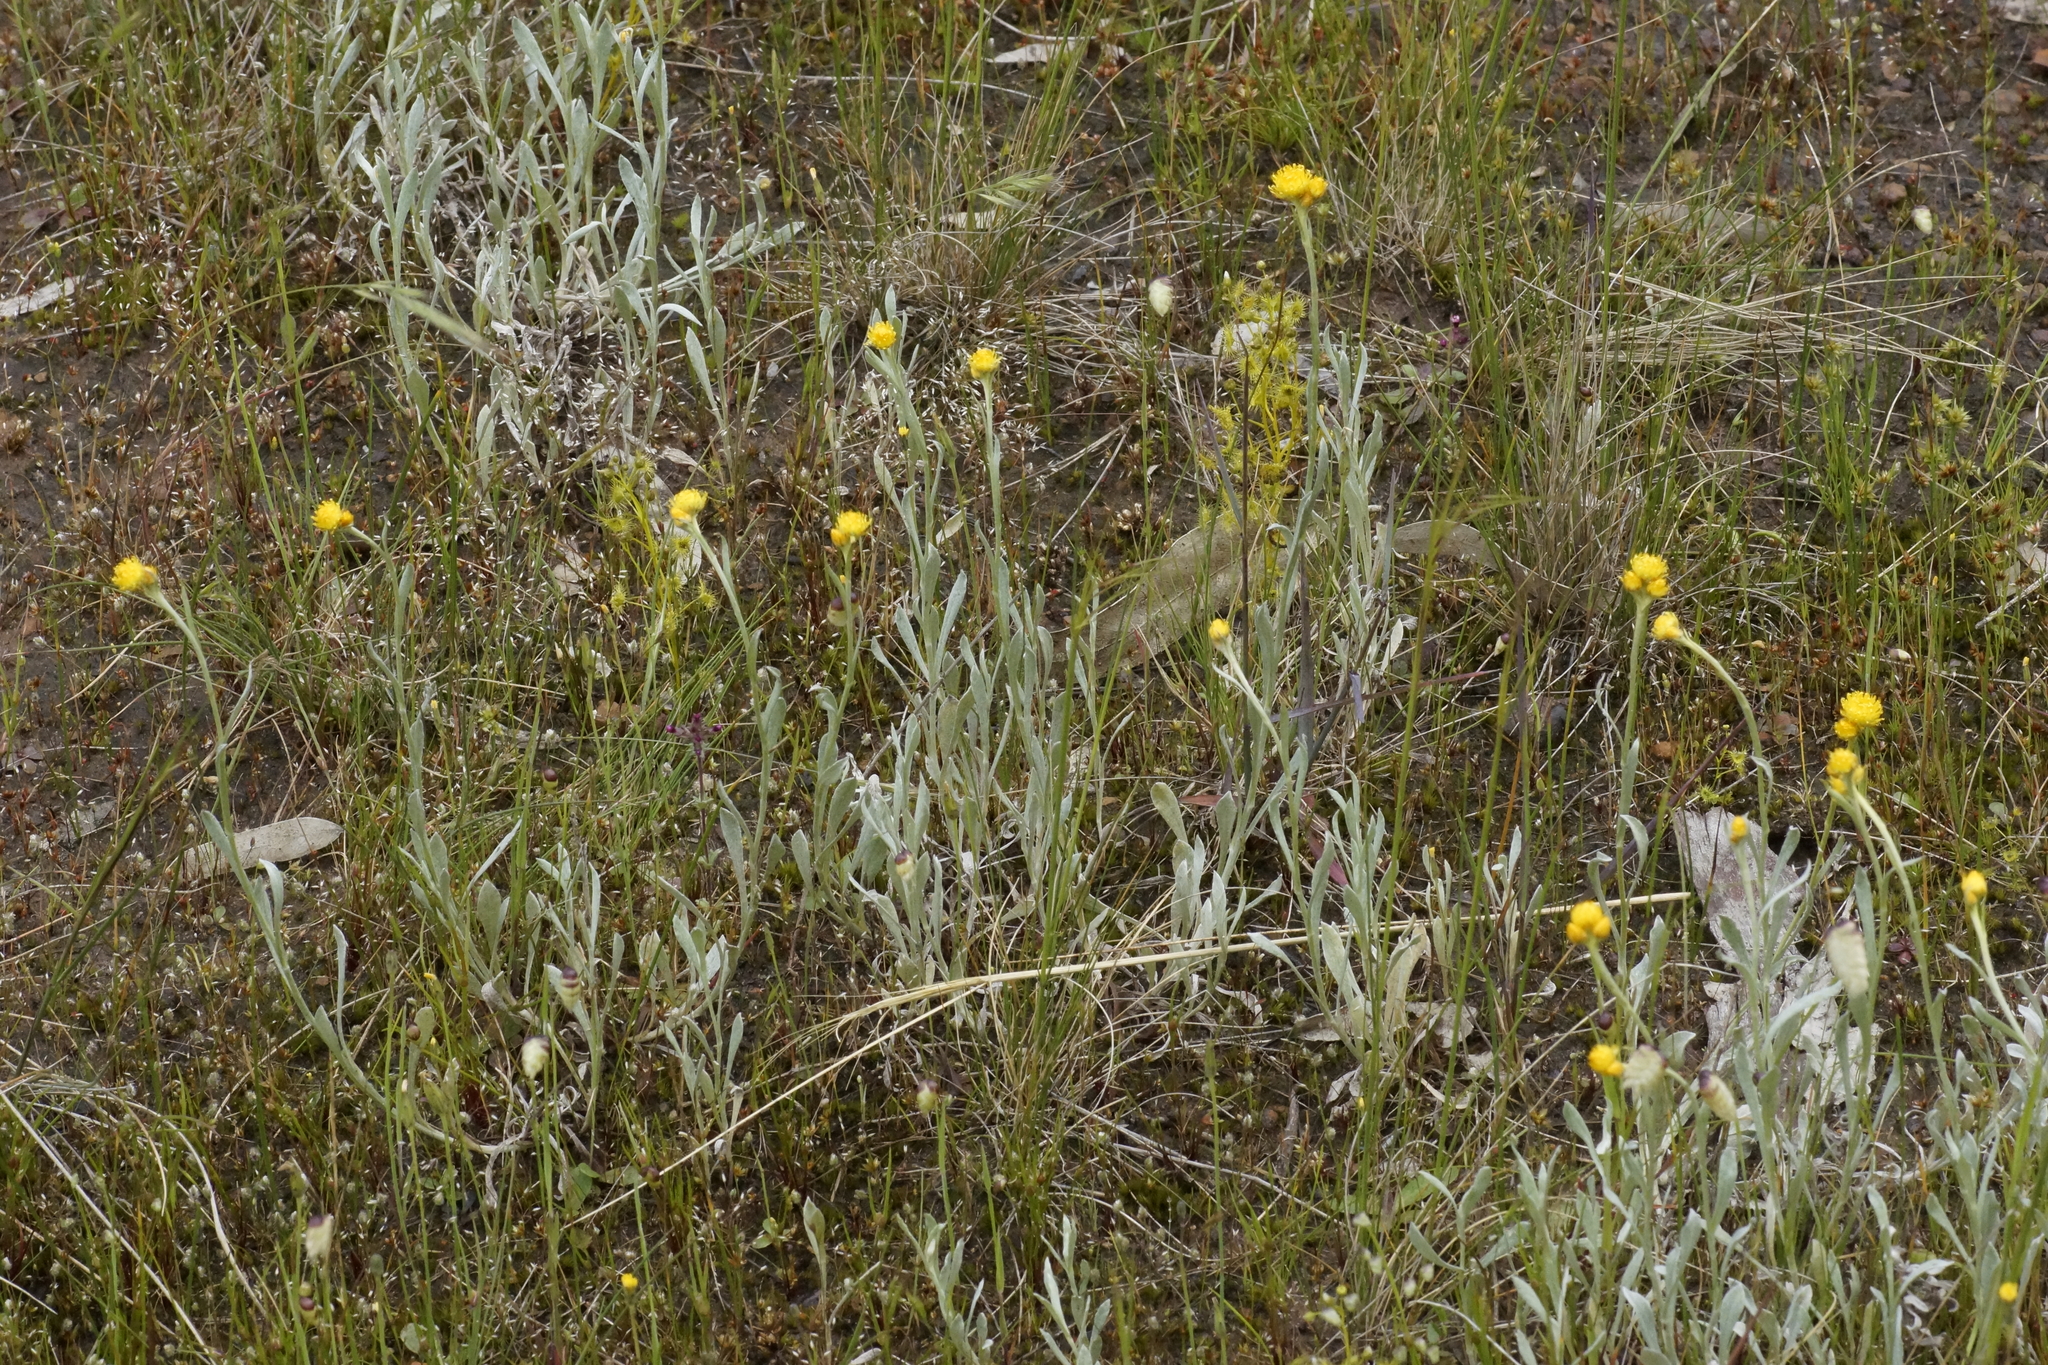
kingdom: Plantae
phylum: Tracheophyta
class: Magnoliopsida
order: Asterales
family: Asteraceae
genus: Chrysocephalum
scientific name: Chrysocephalum apiculatum
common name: Common everlasting
